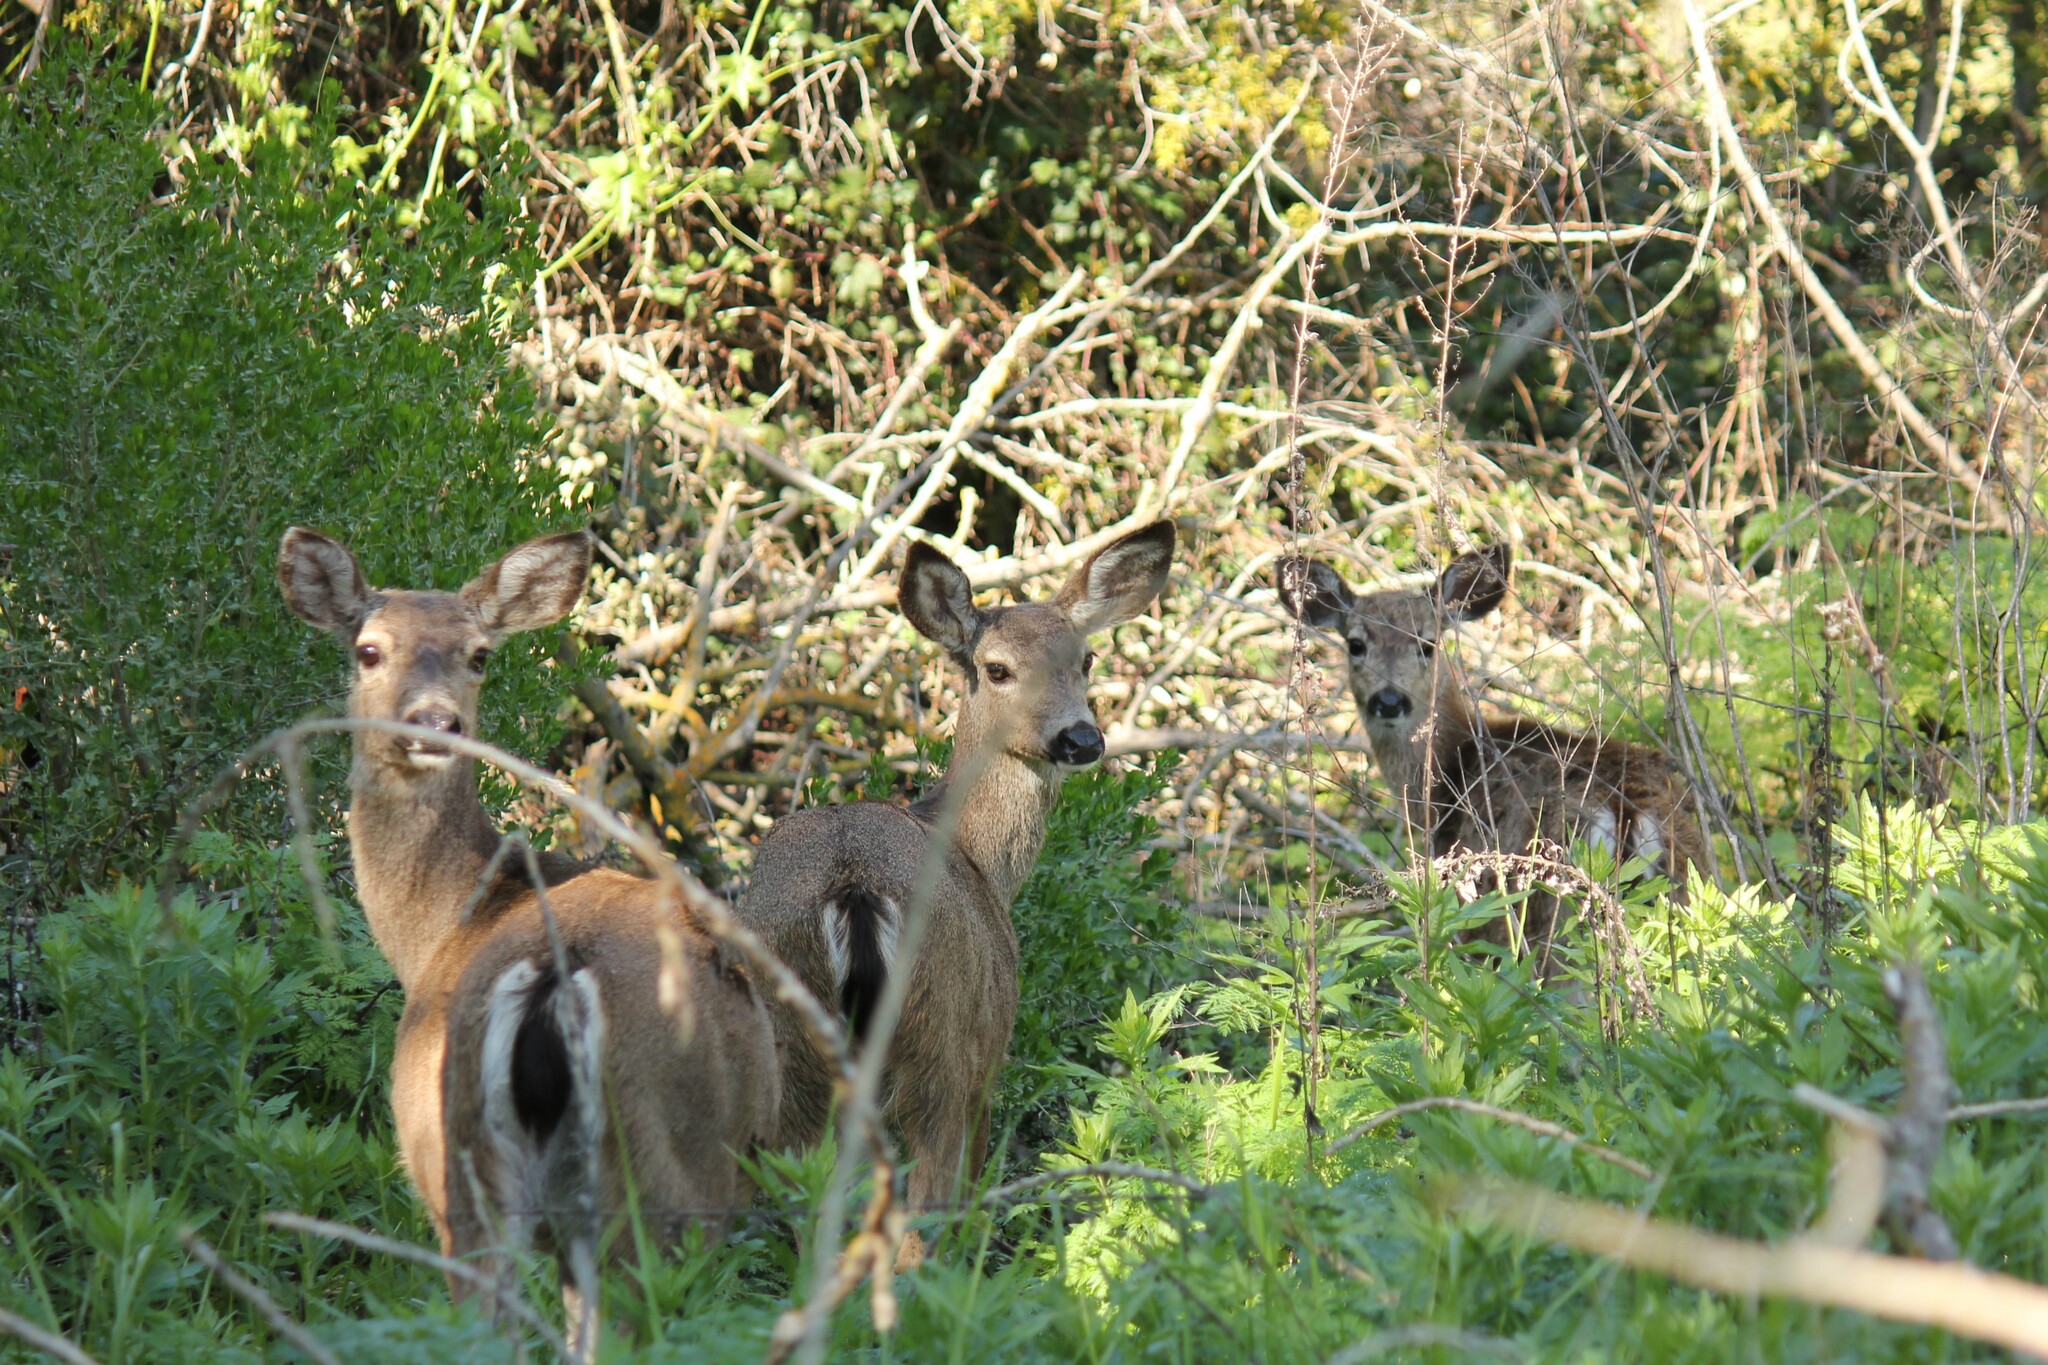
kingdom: Animalia
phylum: Chordata
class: Mammalia
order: Artiodactyla
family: Cervidae
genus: Odocoileus
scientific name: Odocoileus hemionus
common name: Mule deer
